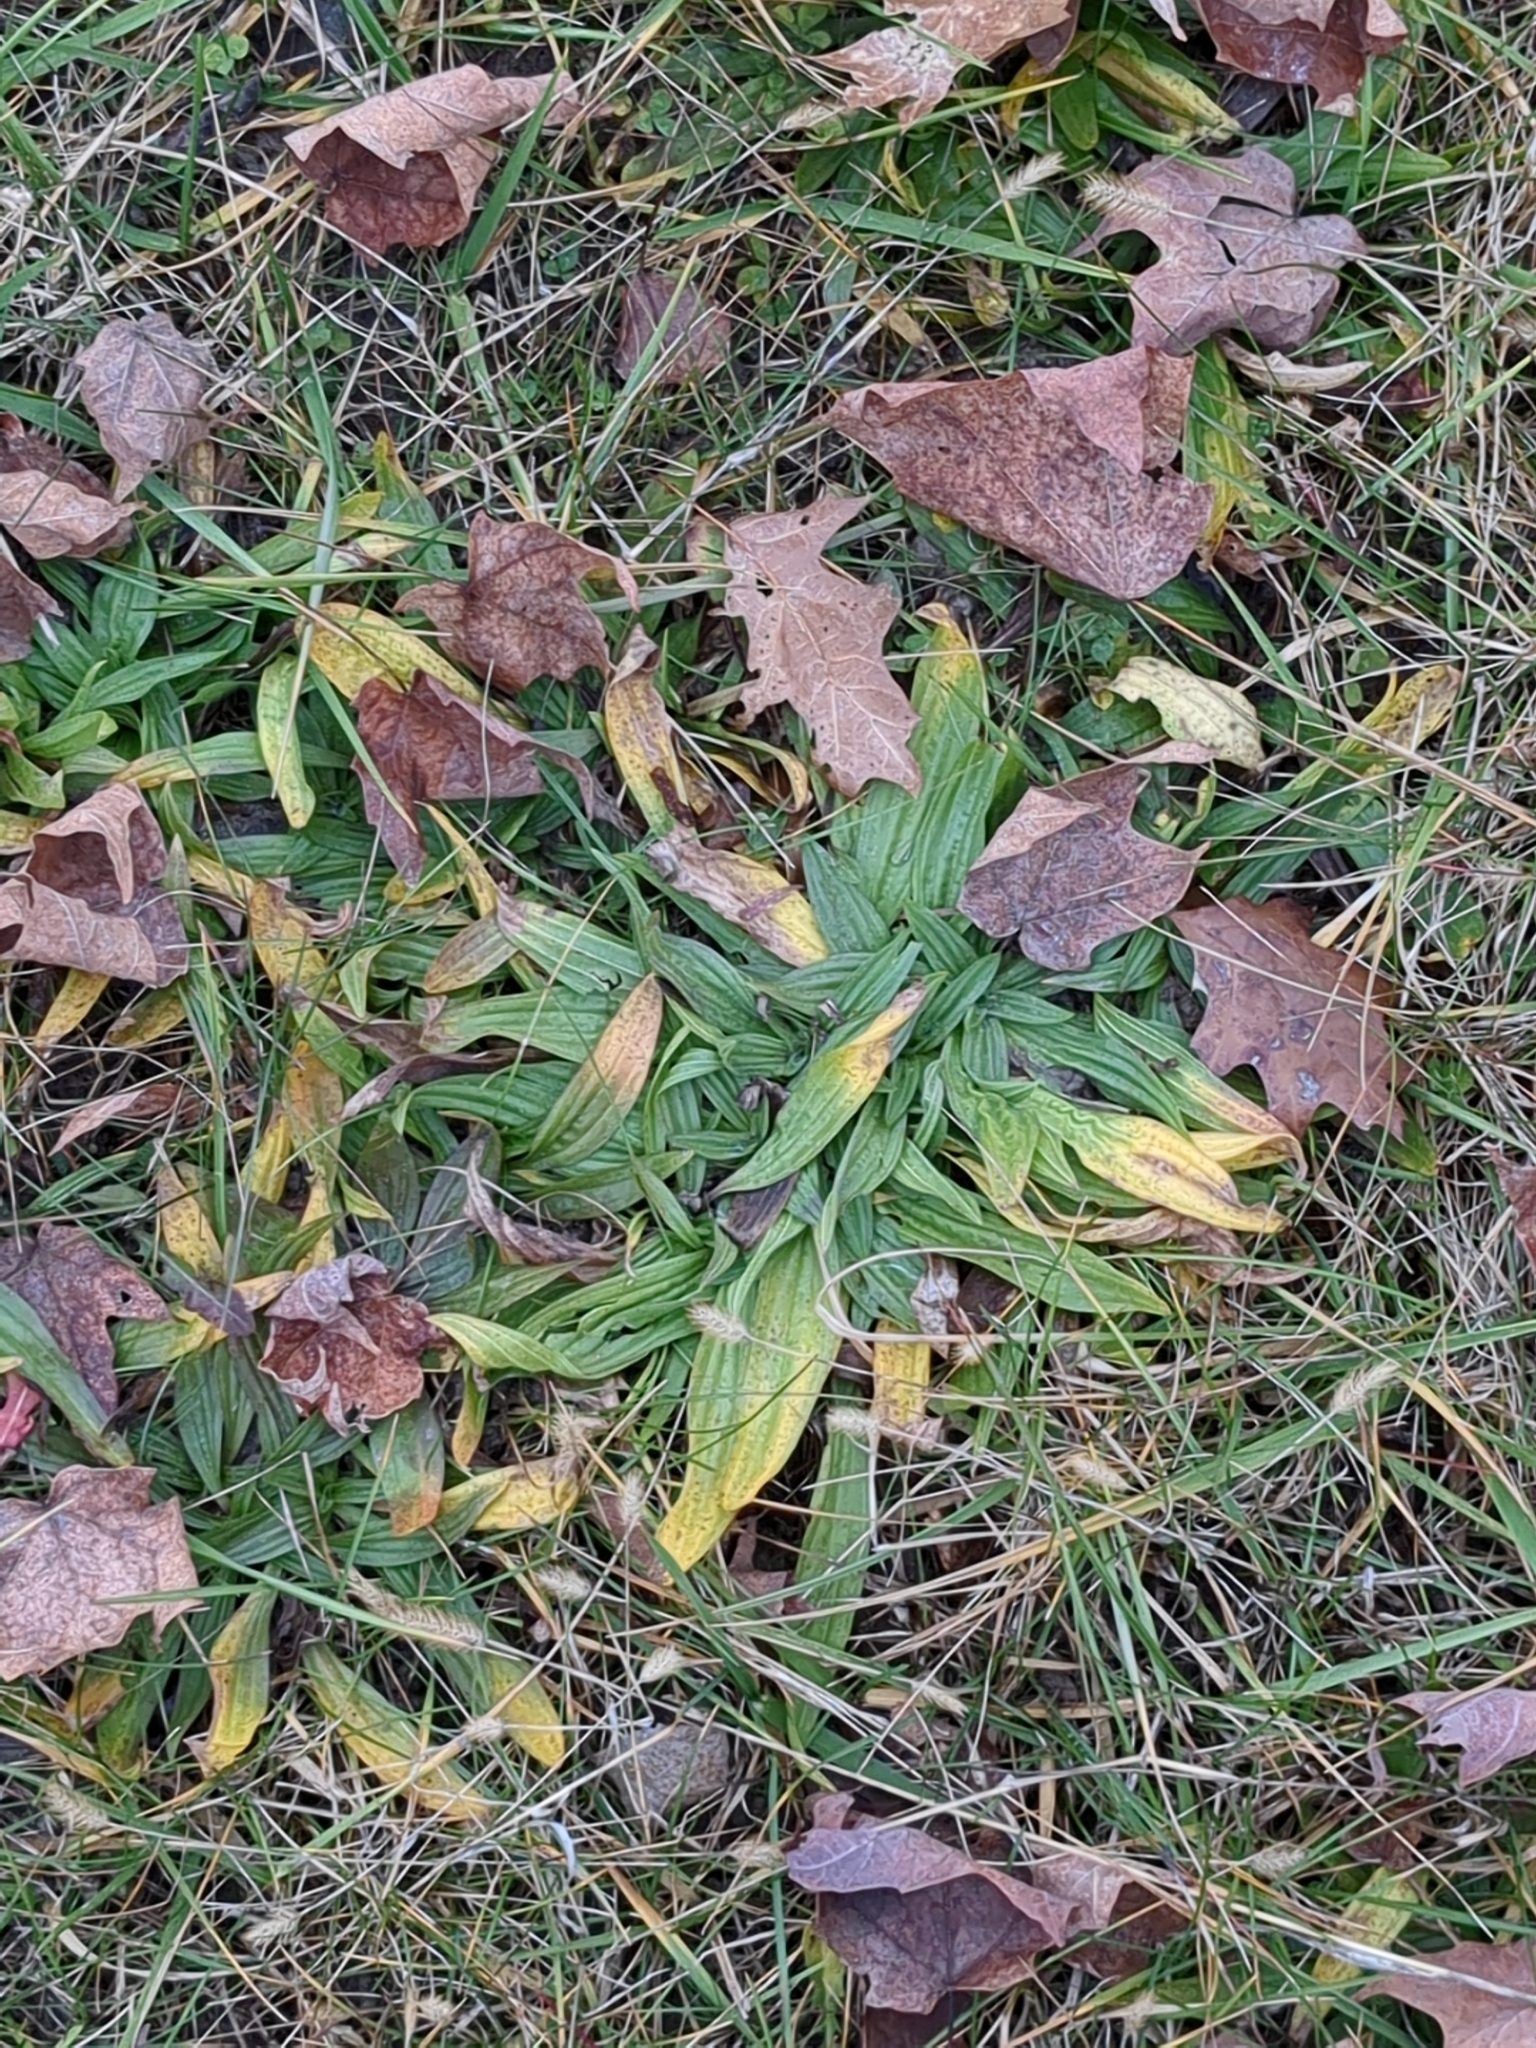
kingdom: Plantae
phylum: Tracheophyta
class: Magnoliopsida
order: Lamiales
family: Plantaginaceae
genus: Plantago
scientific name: Plantago lanceolata
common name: Ribwort plantain
